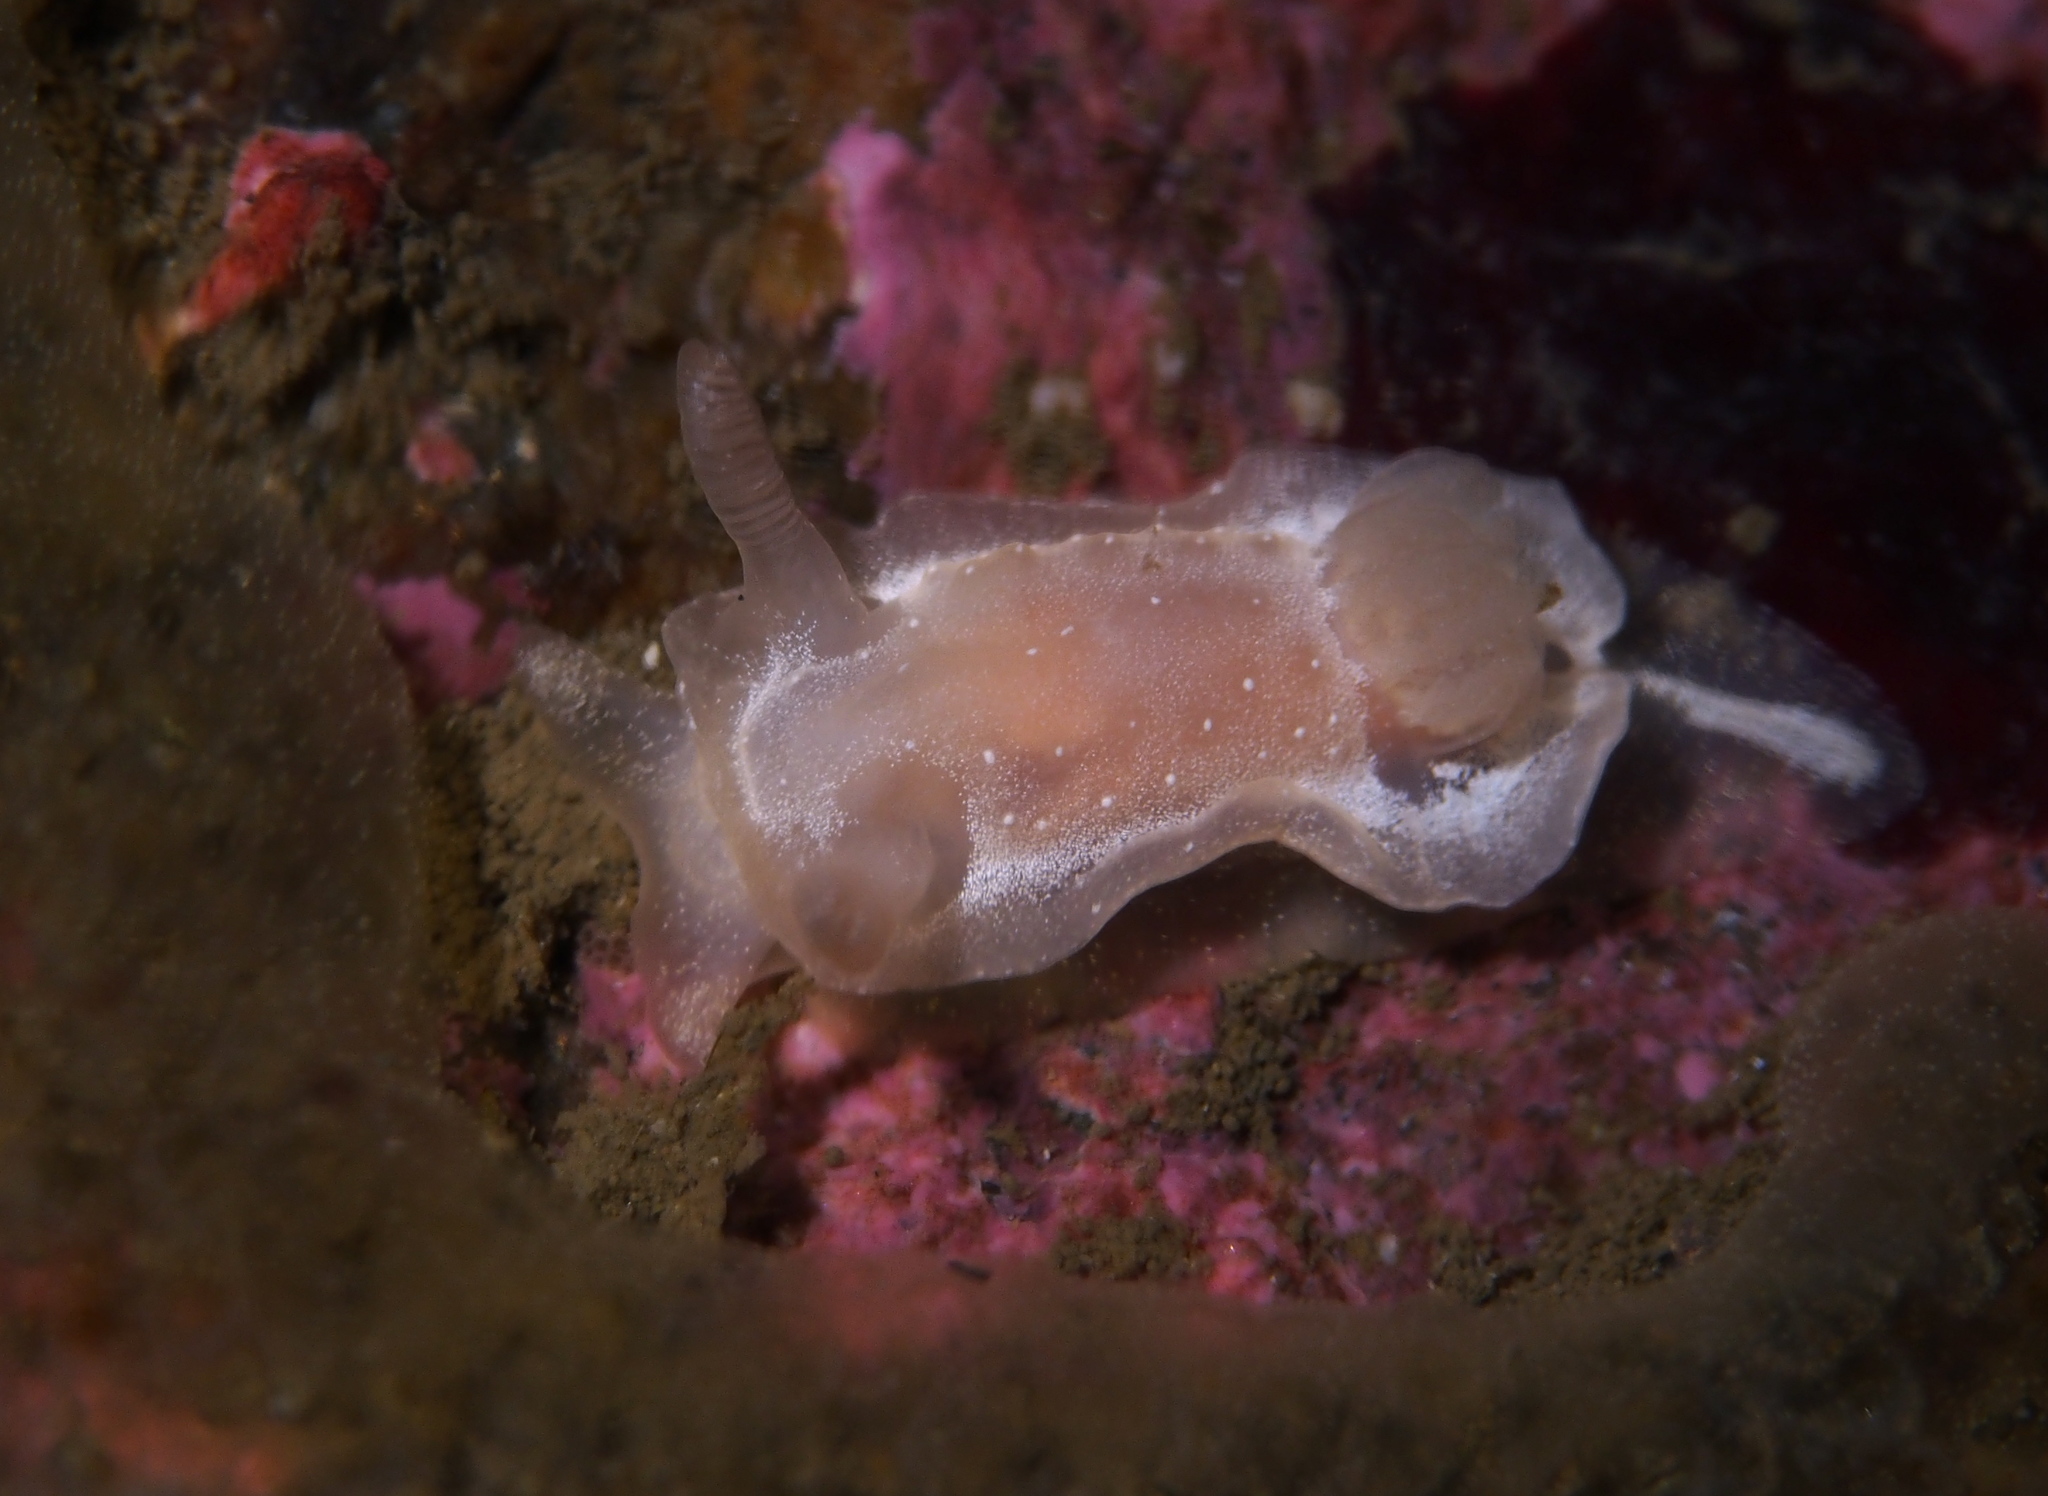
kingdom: Animalia
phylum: Mollusca
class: Gastropoda
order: Nudibranchia
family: Goniodorididae
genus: Okenia
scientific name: Okenia
